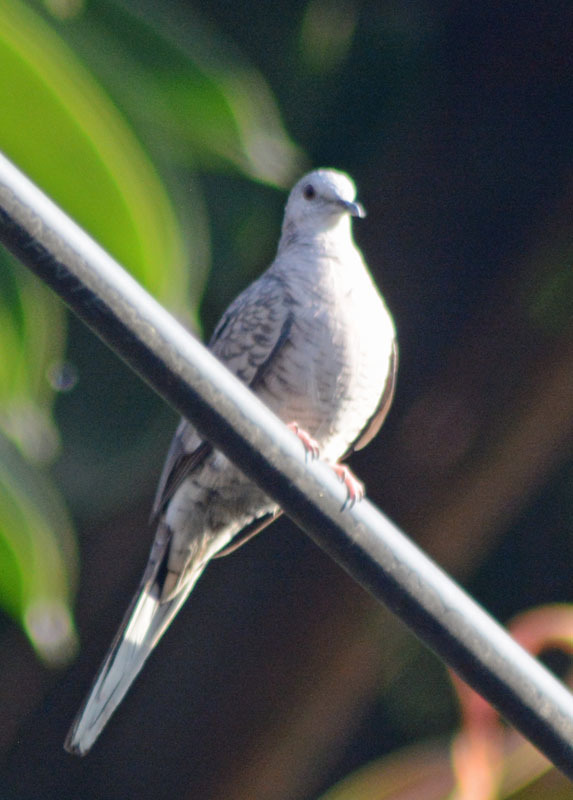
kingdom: Animalia
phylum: Chordata
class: Aves
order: Columbiformes
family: Columbidae
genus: Columbina
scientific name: Columbina inca
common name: Inca dove
